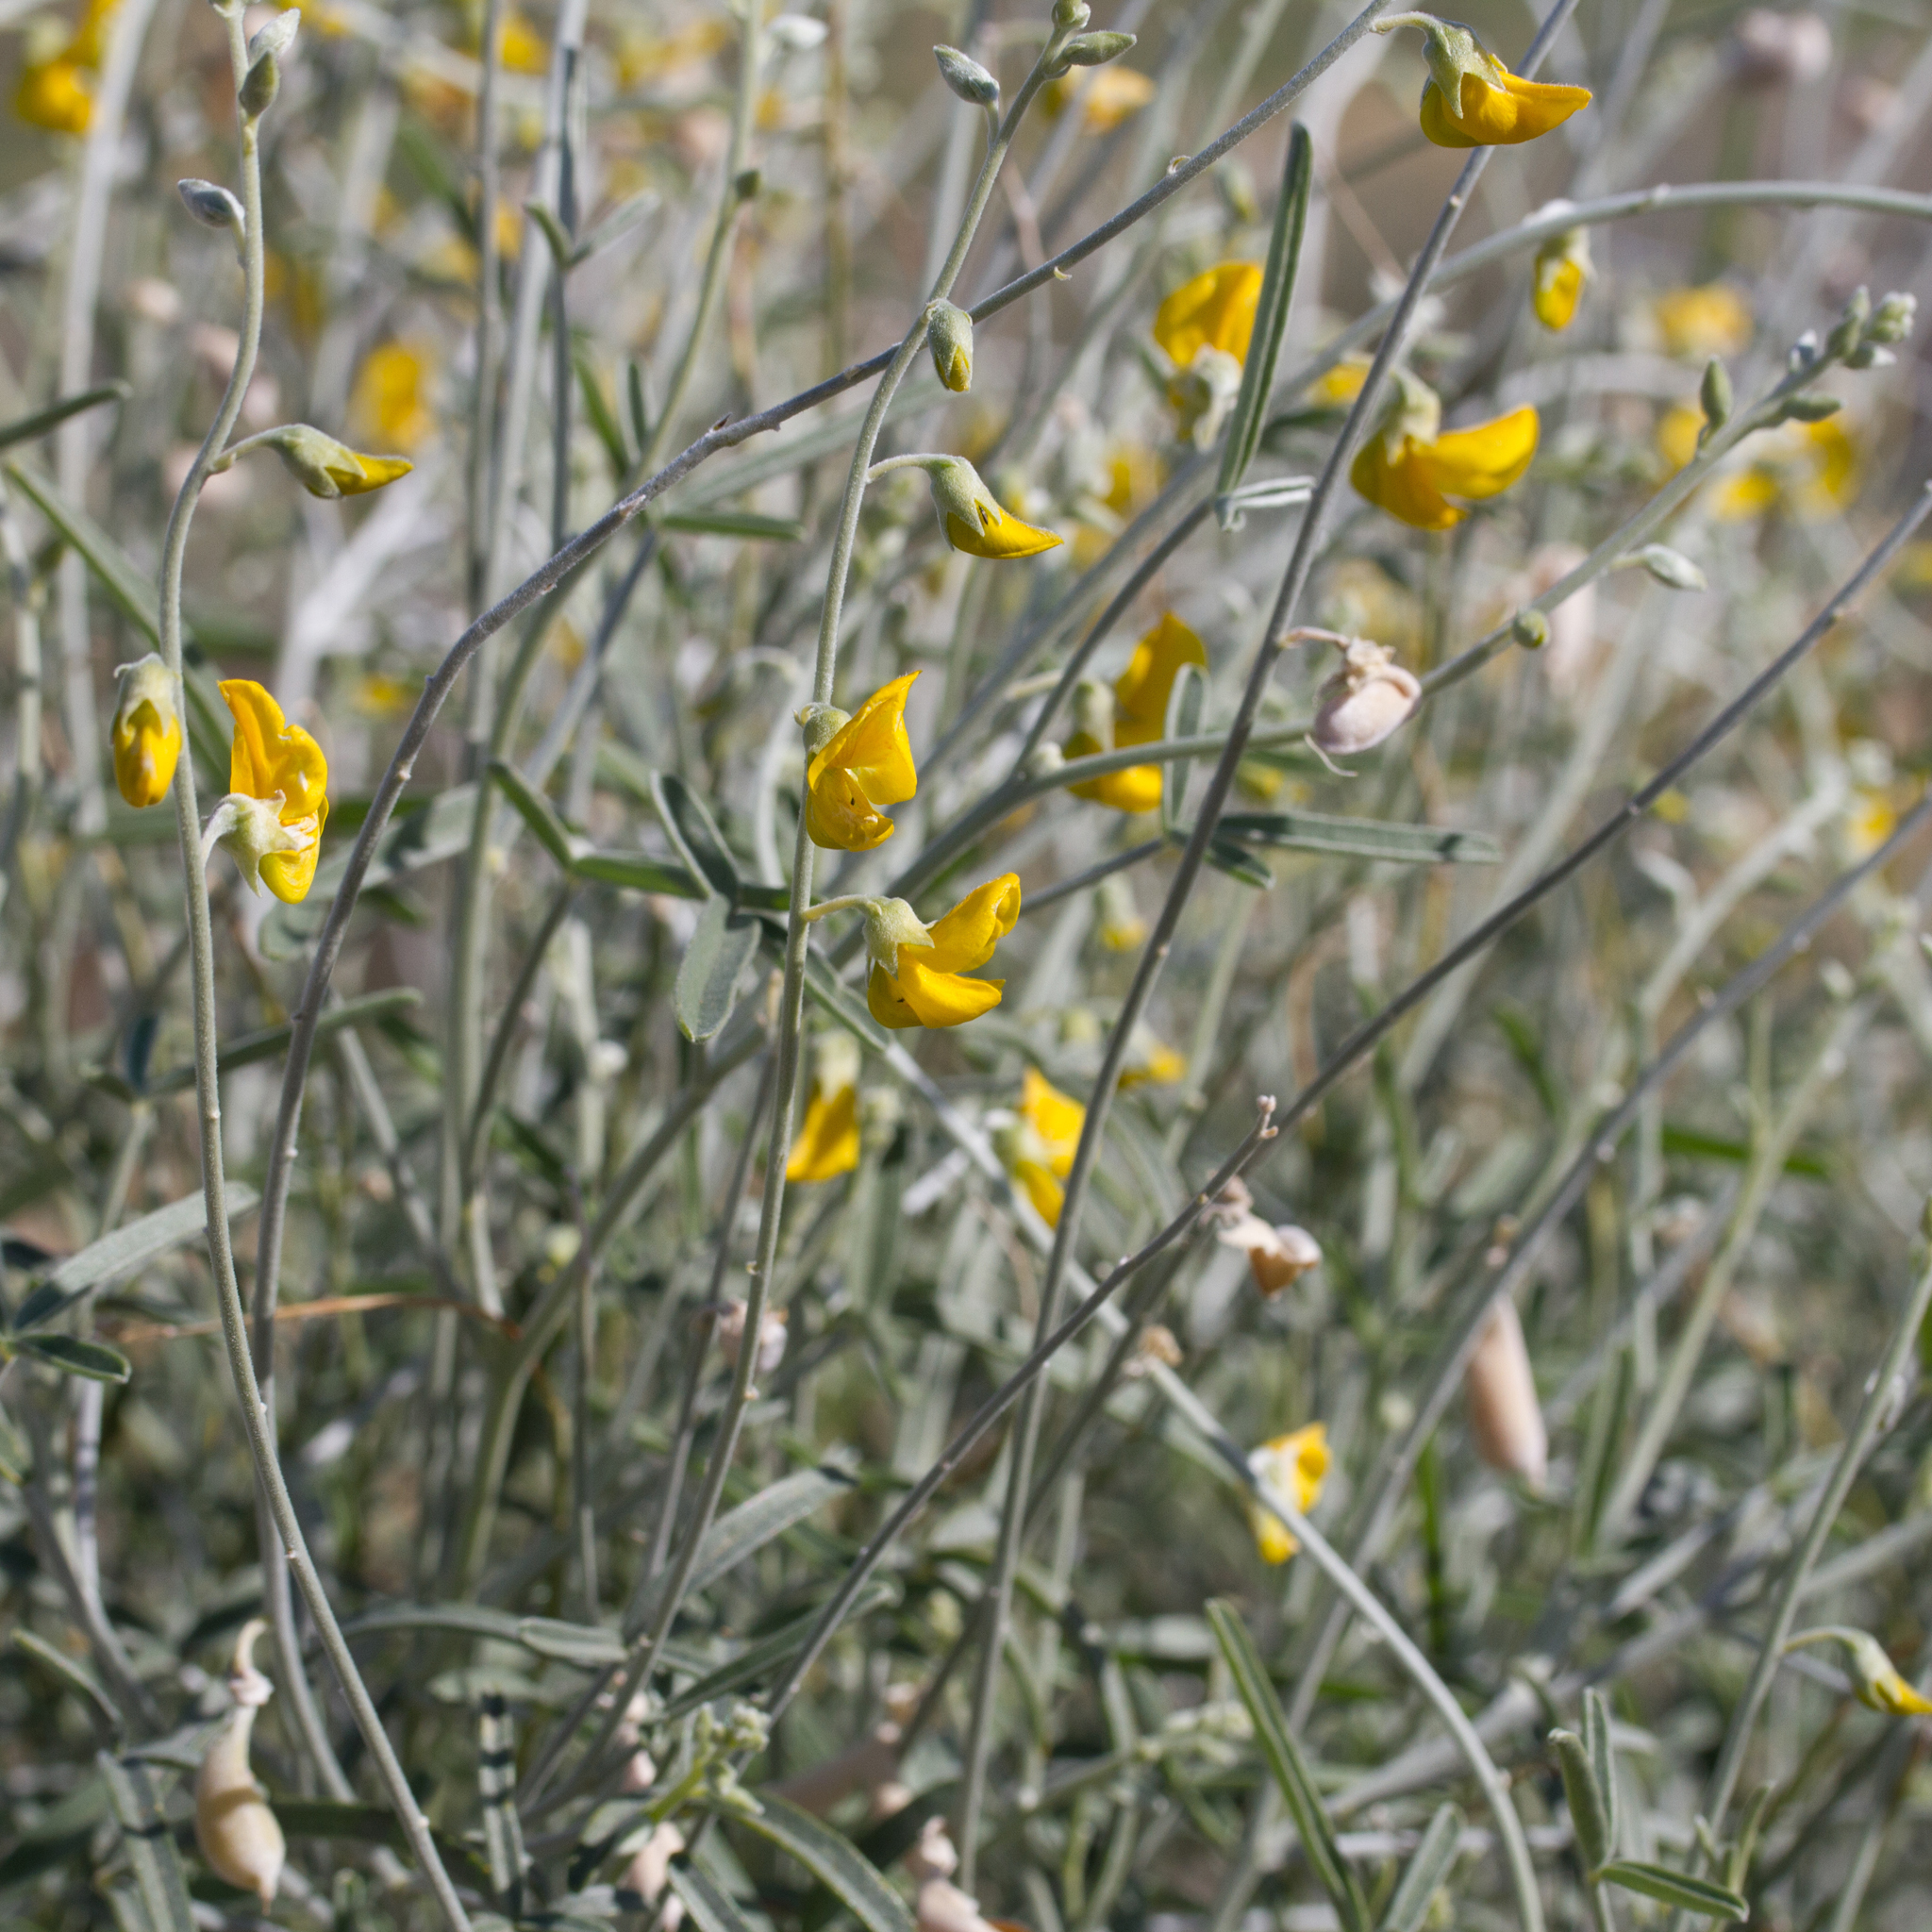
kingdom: Plantae
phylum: Tracheophyta
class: Magnoliopsida
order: Fabales
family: Fabaceae
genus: Crotalaria
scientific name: Crotalaria eremaea
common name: Bluebush pea
